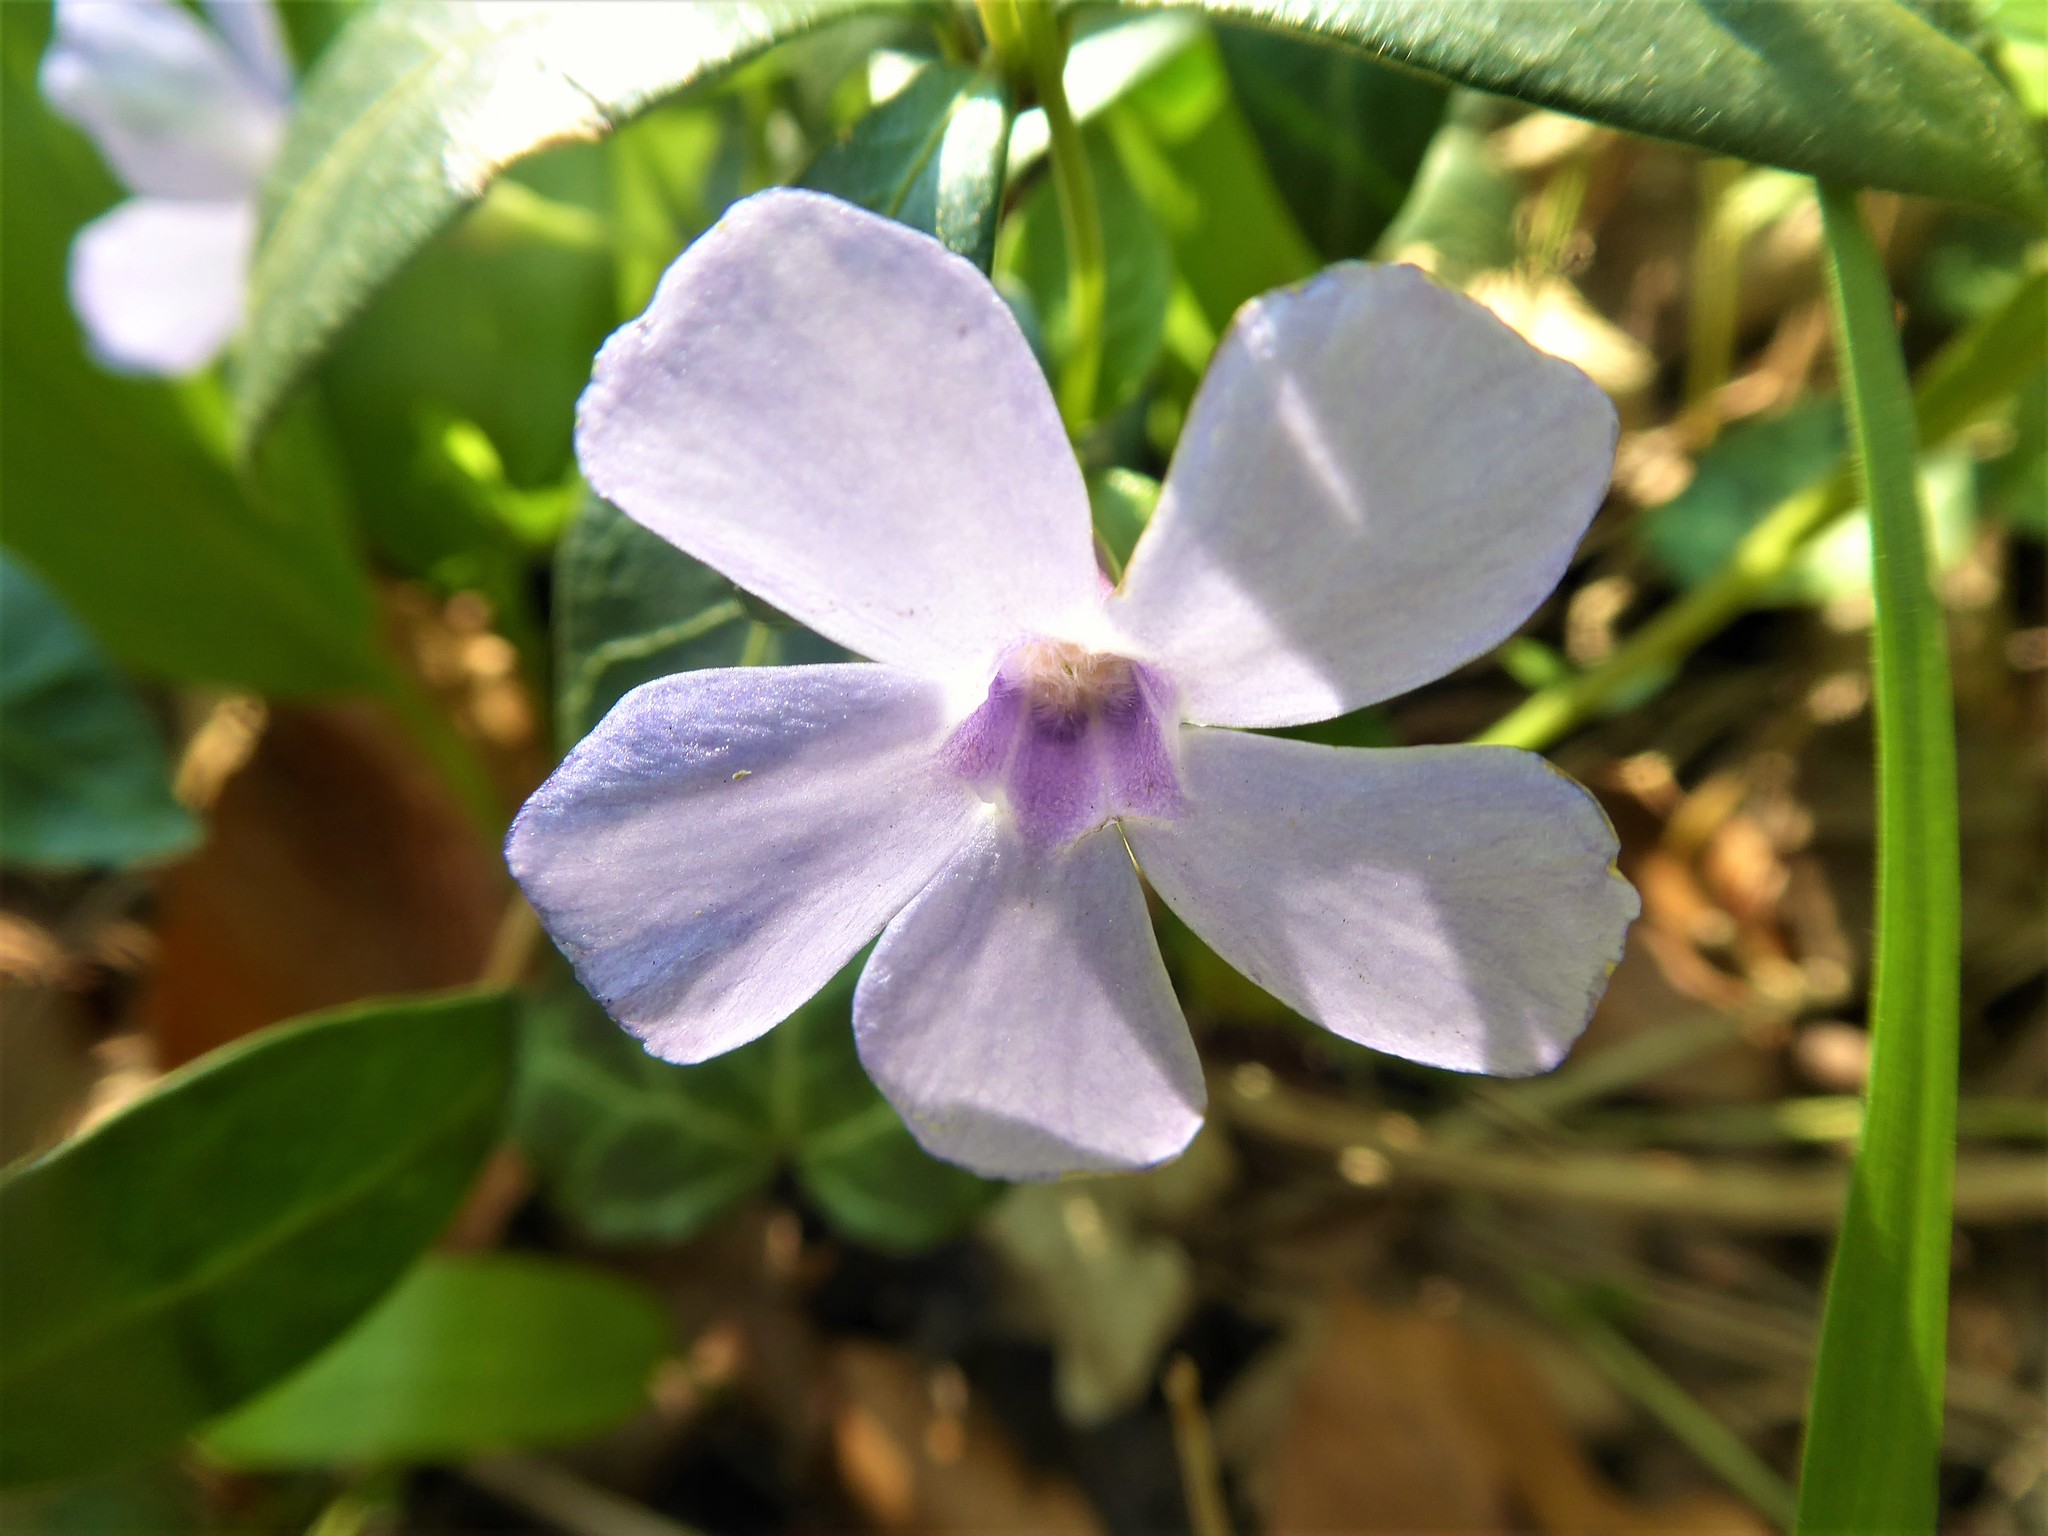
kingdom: Plantae
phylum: Tracheophyta
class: Magnoliopsida
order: Gentianales
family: Apocynaceae
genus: Vinca
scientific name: Vinca minor
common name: Lesser periwinkle
